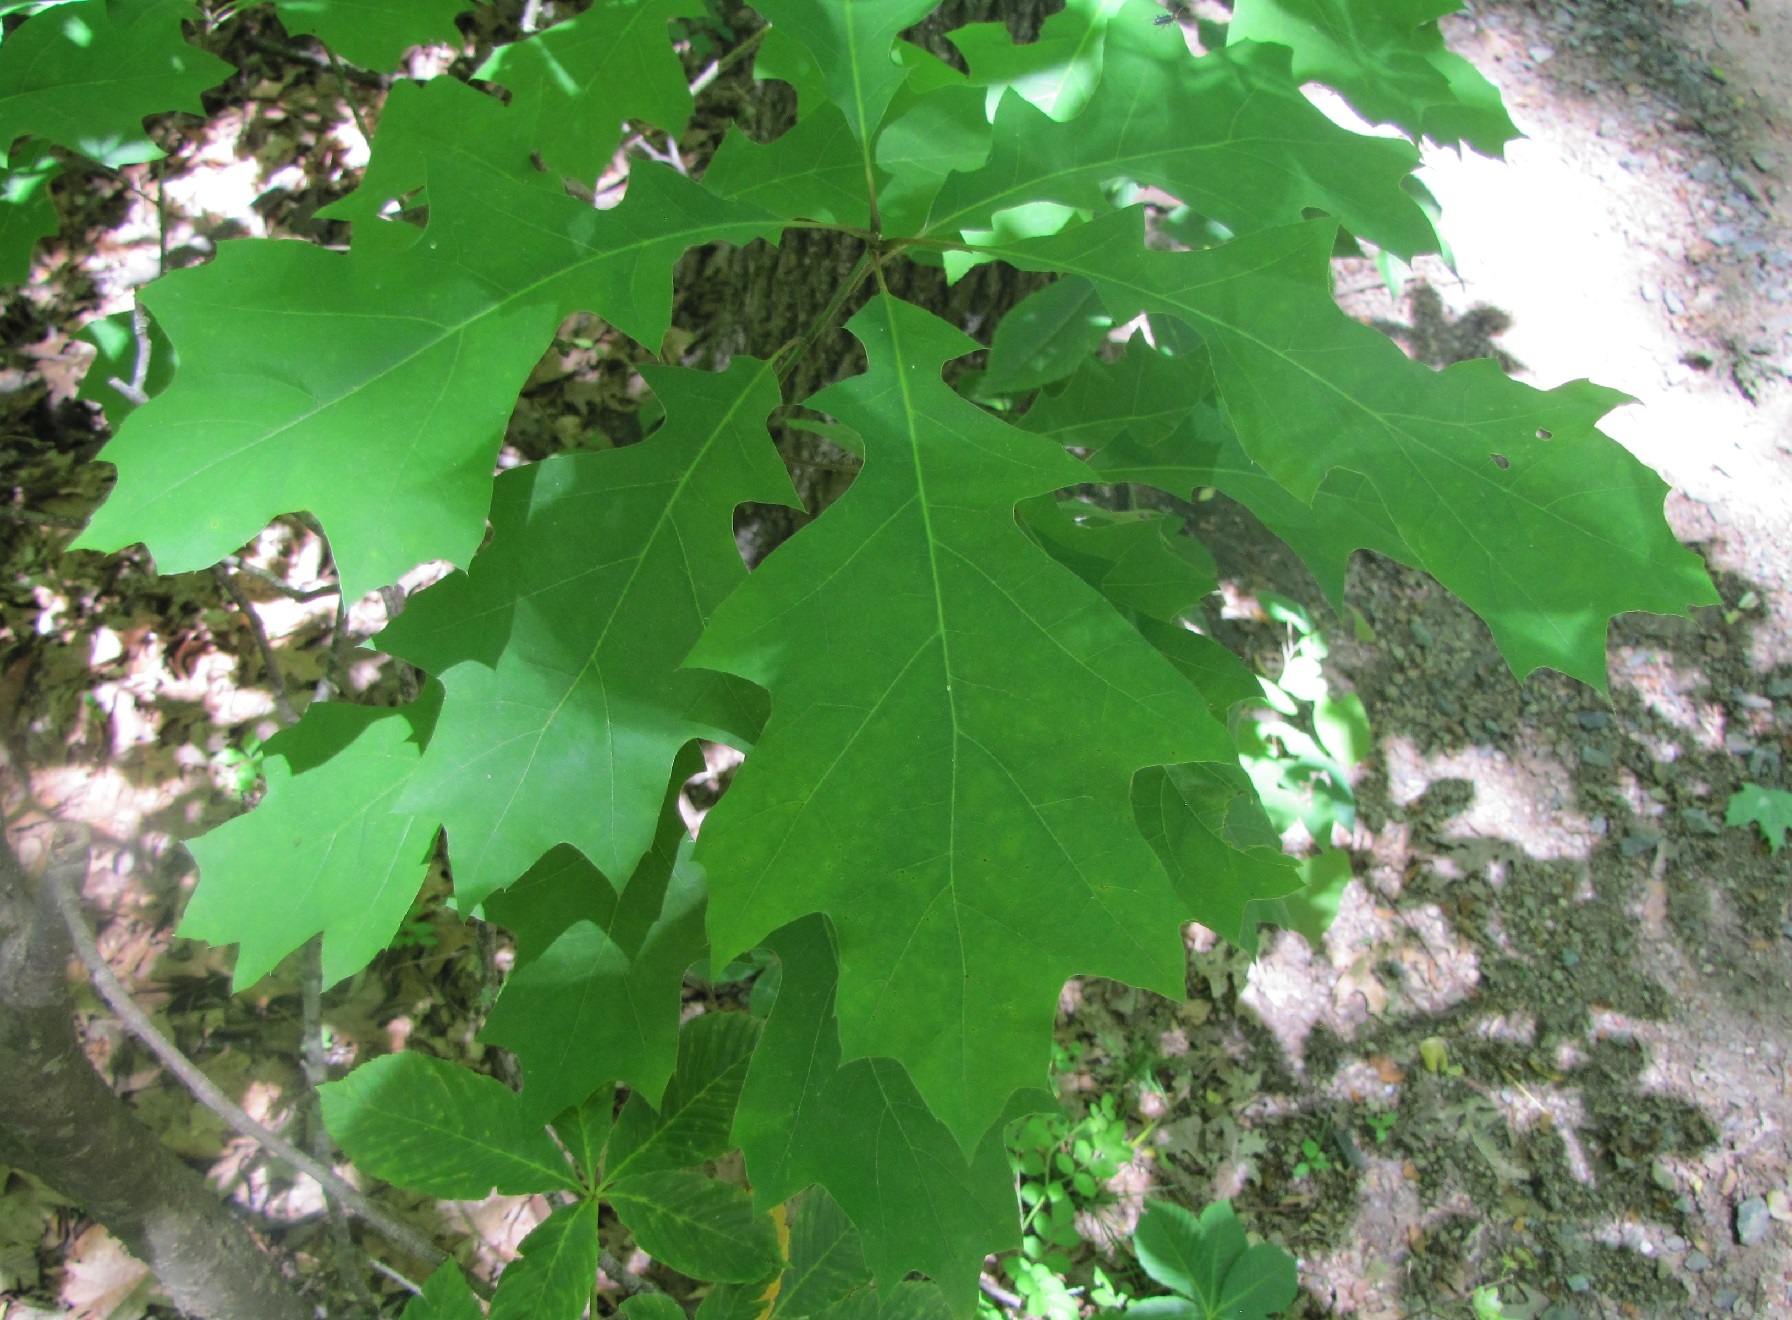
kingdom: Plantae
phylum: Tracheophyta
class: Magnoliopsida
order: Fagales
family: Fagaceae
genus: Quercus
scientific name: Quercus rubra
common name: Red oak
